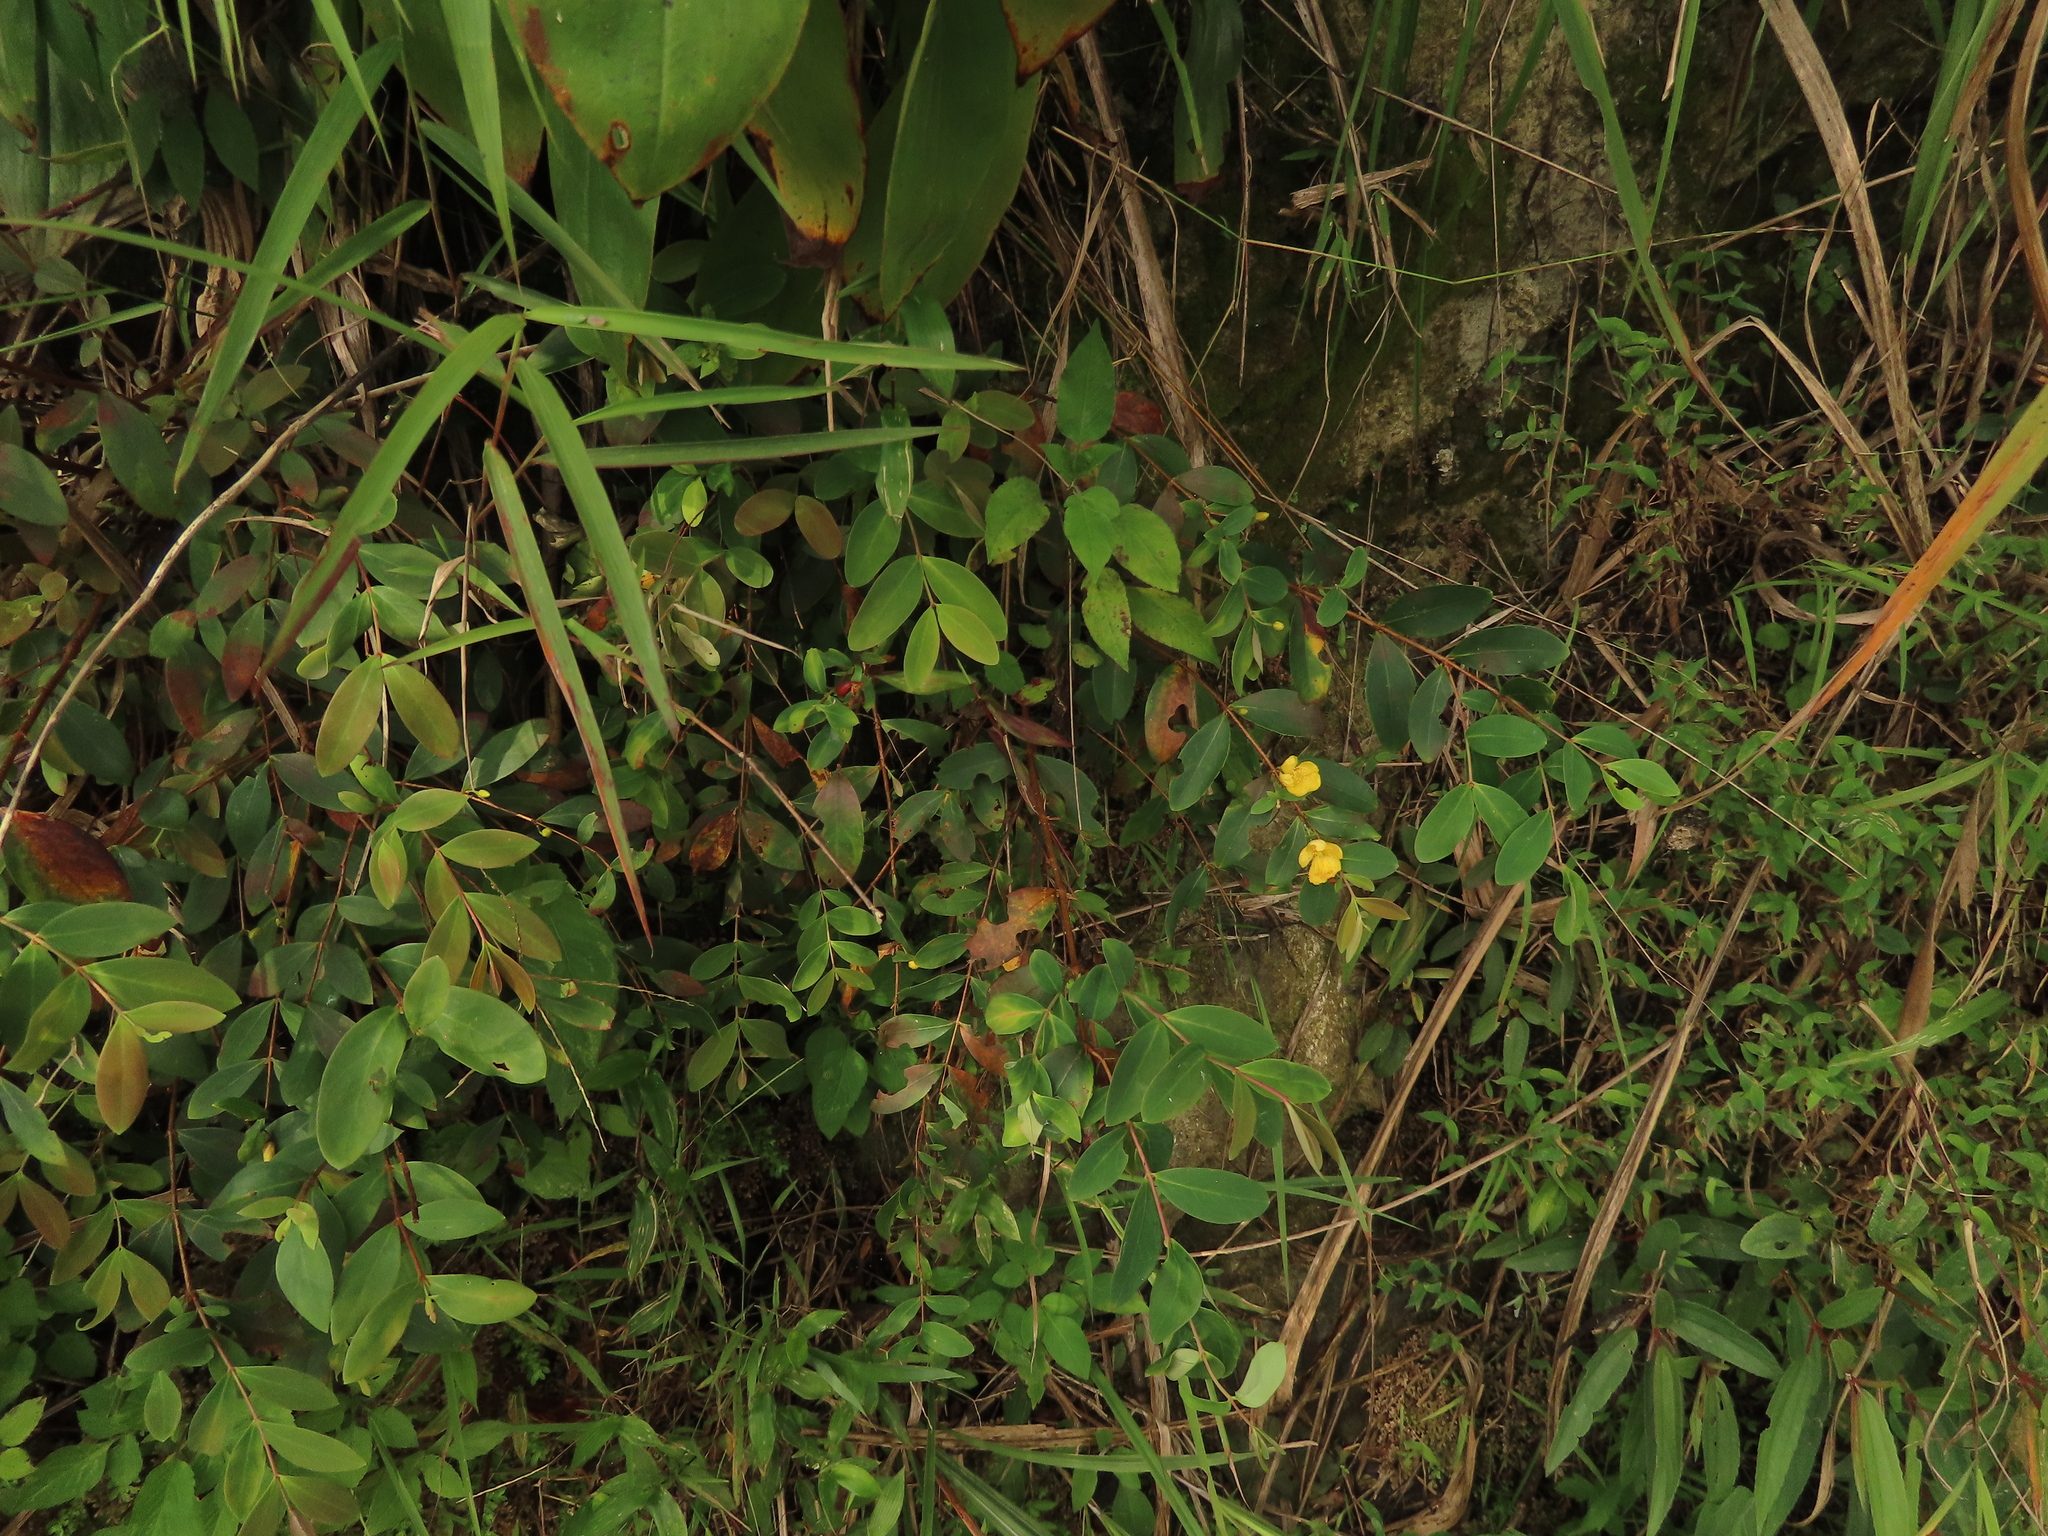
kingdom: Plantae
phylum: Tracheophyta
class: Magnoliopsida
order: Malpighiales
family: Hypericaceae
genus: Hypericum
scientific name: Hypericum geminiflorum
